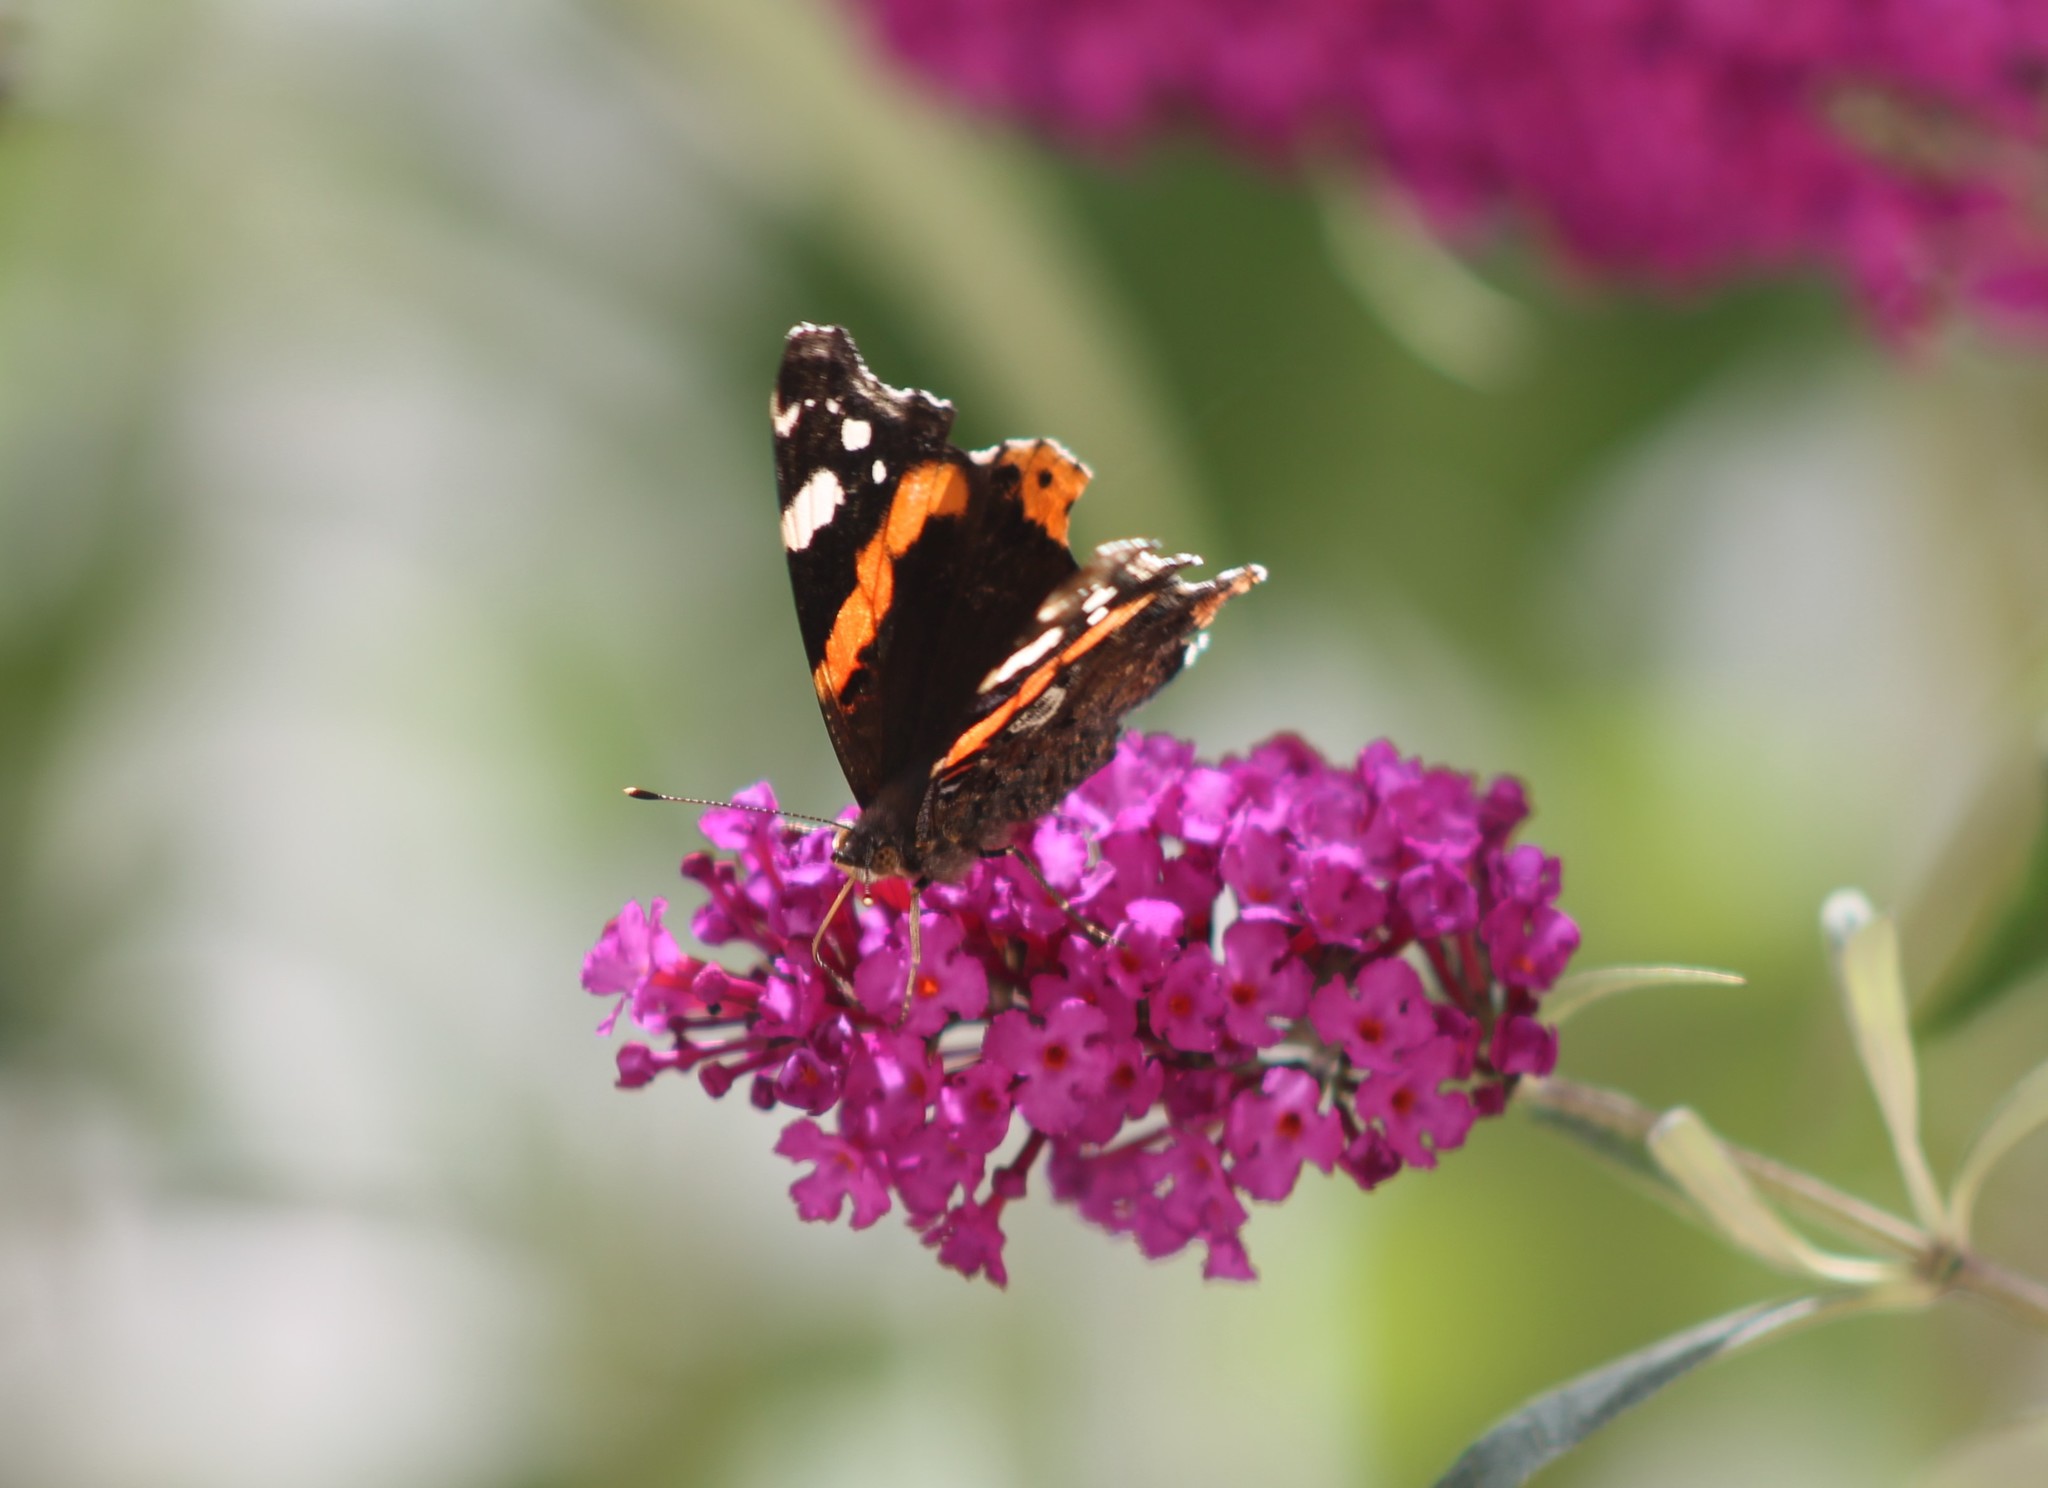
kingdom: Animalia
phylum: Arthropoda
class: Insecta
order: Lepidoptera
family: Nymphalidae
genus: Vanessa
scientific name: Vanessa atalanta
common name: Red admiral
